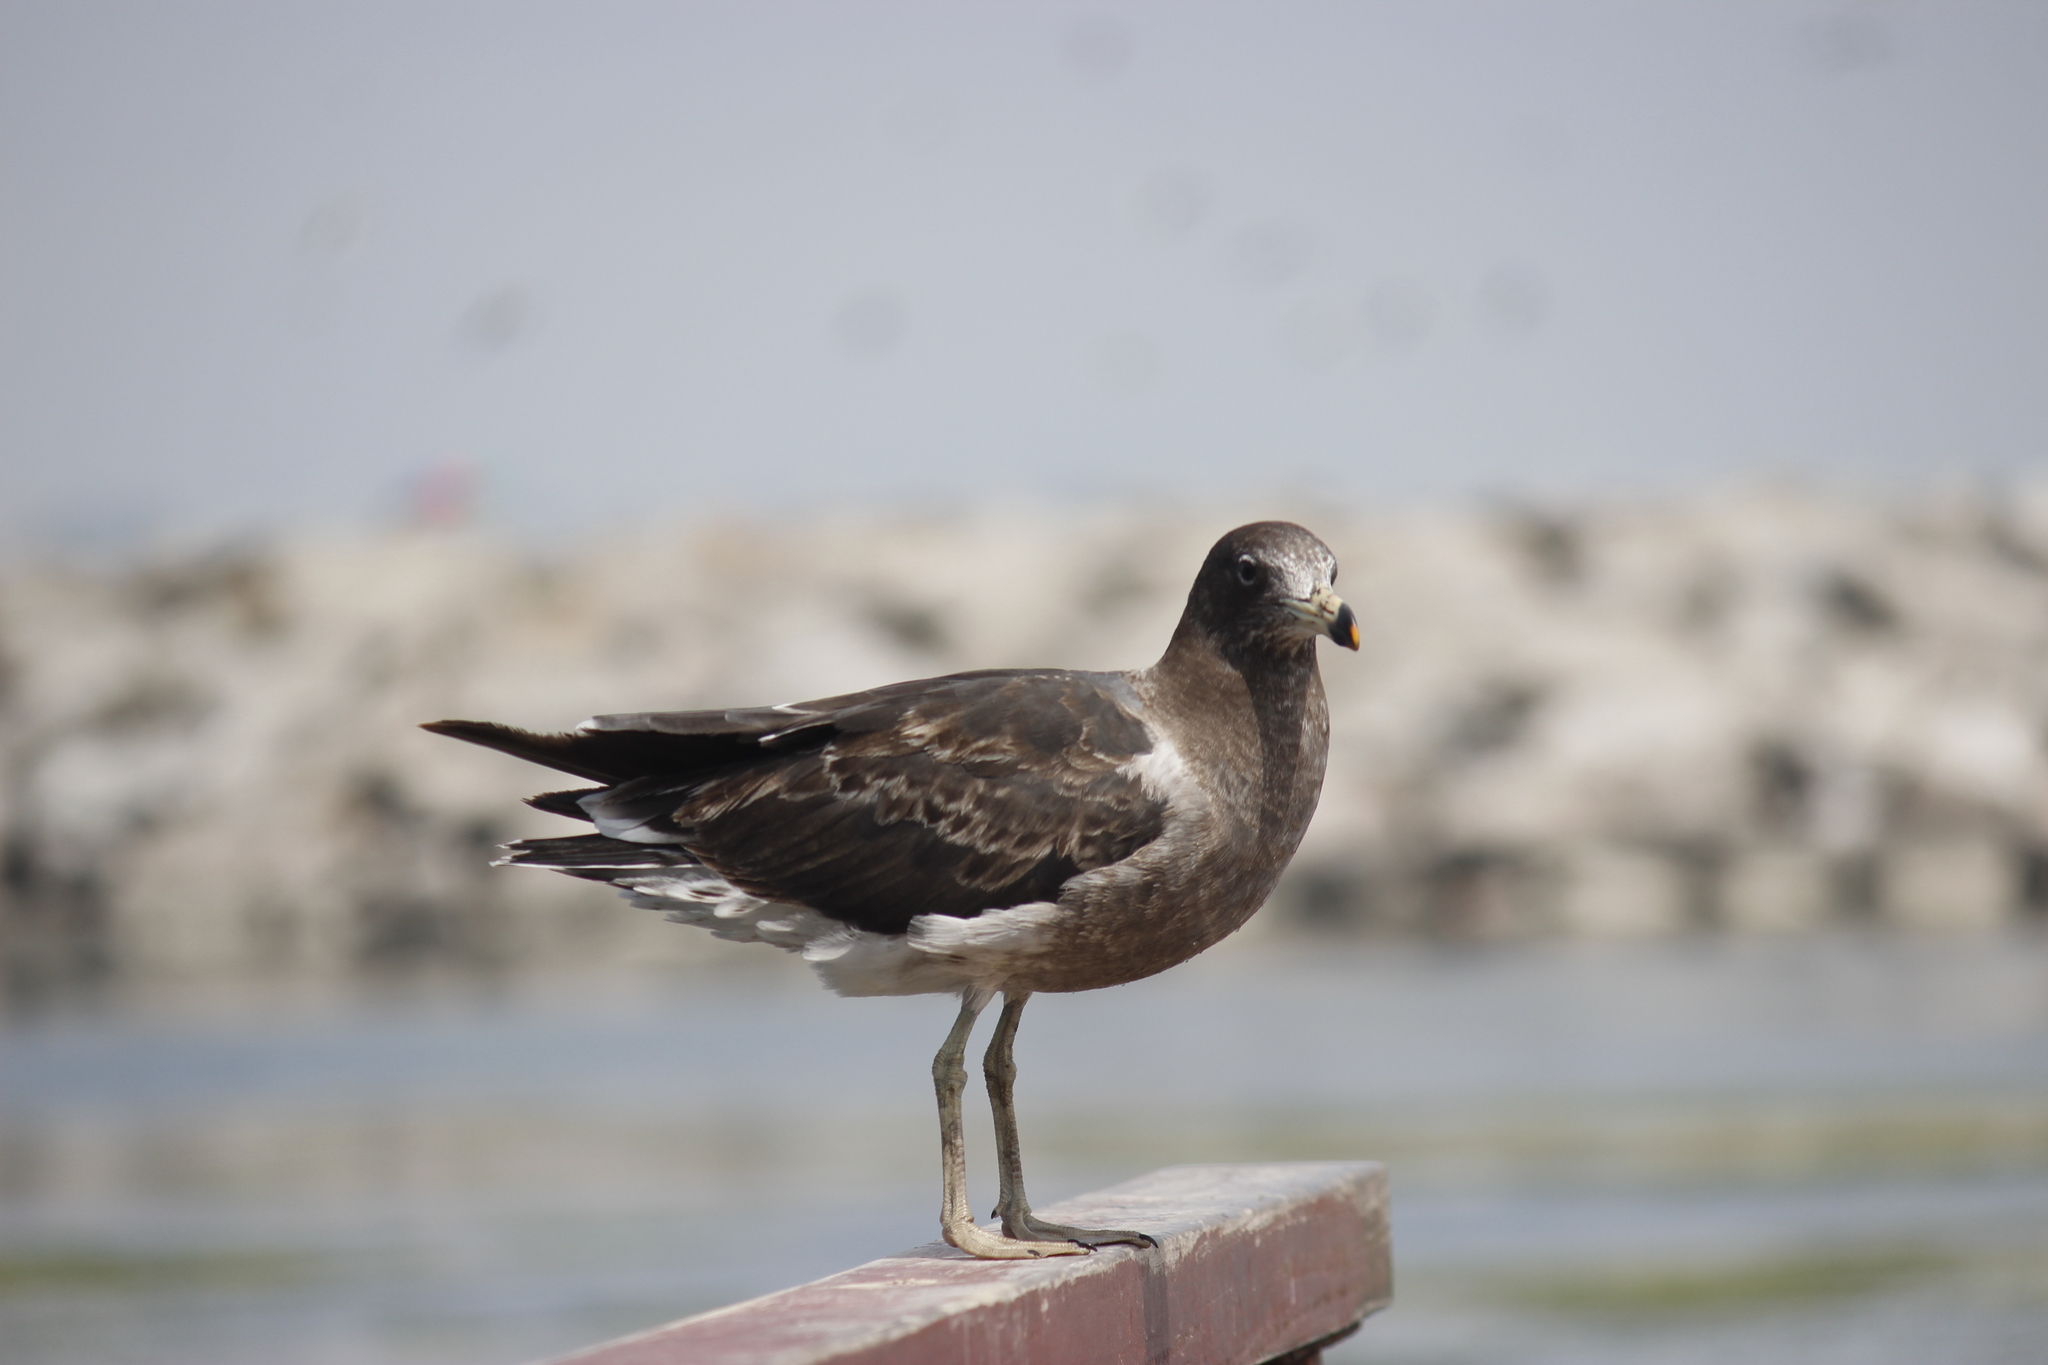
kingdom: Animalia
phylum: Chordata
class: Aves
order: Charadriiformes
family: Laridae
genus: Larus
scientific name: Larus belcheri
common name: Belcher's gull
